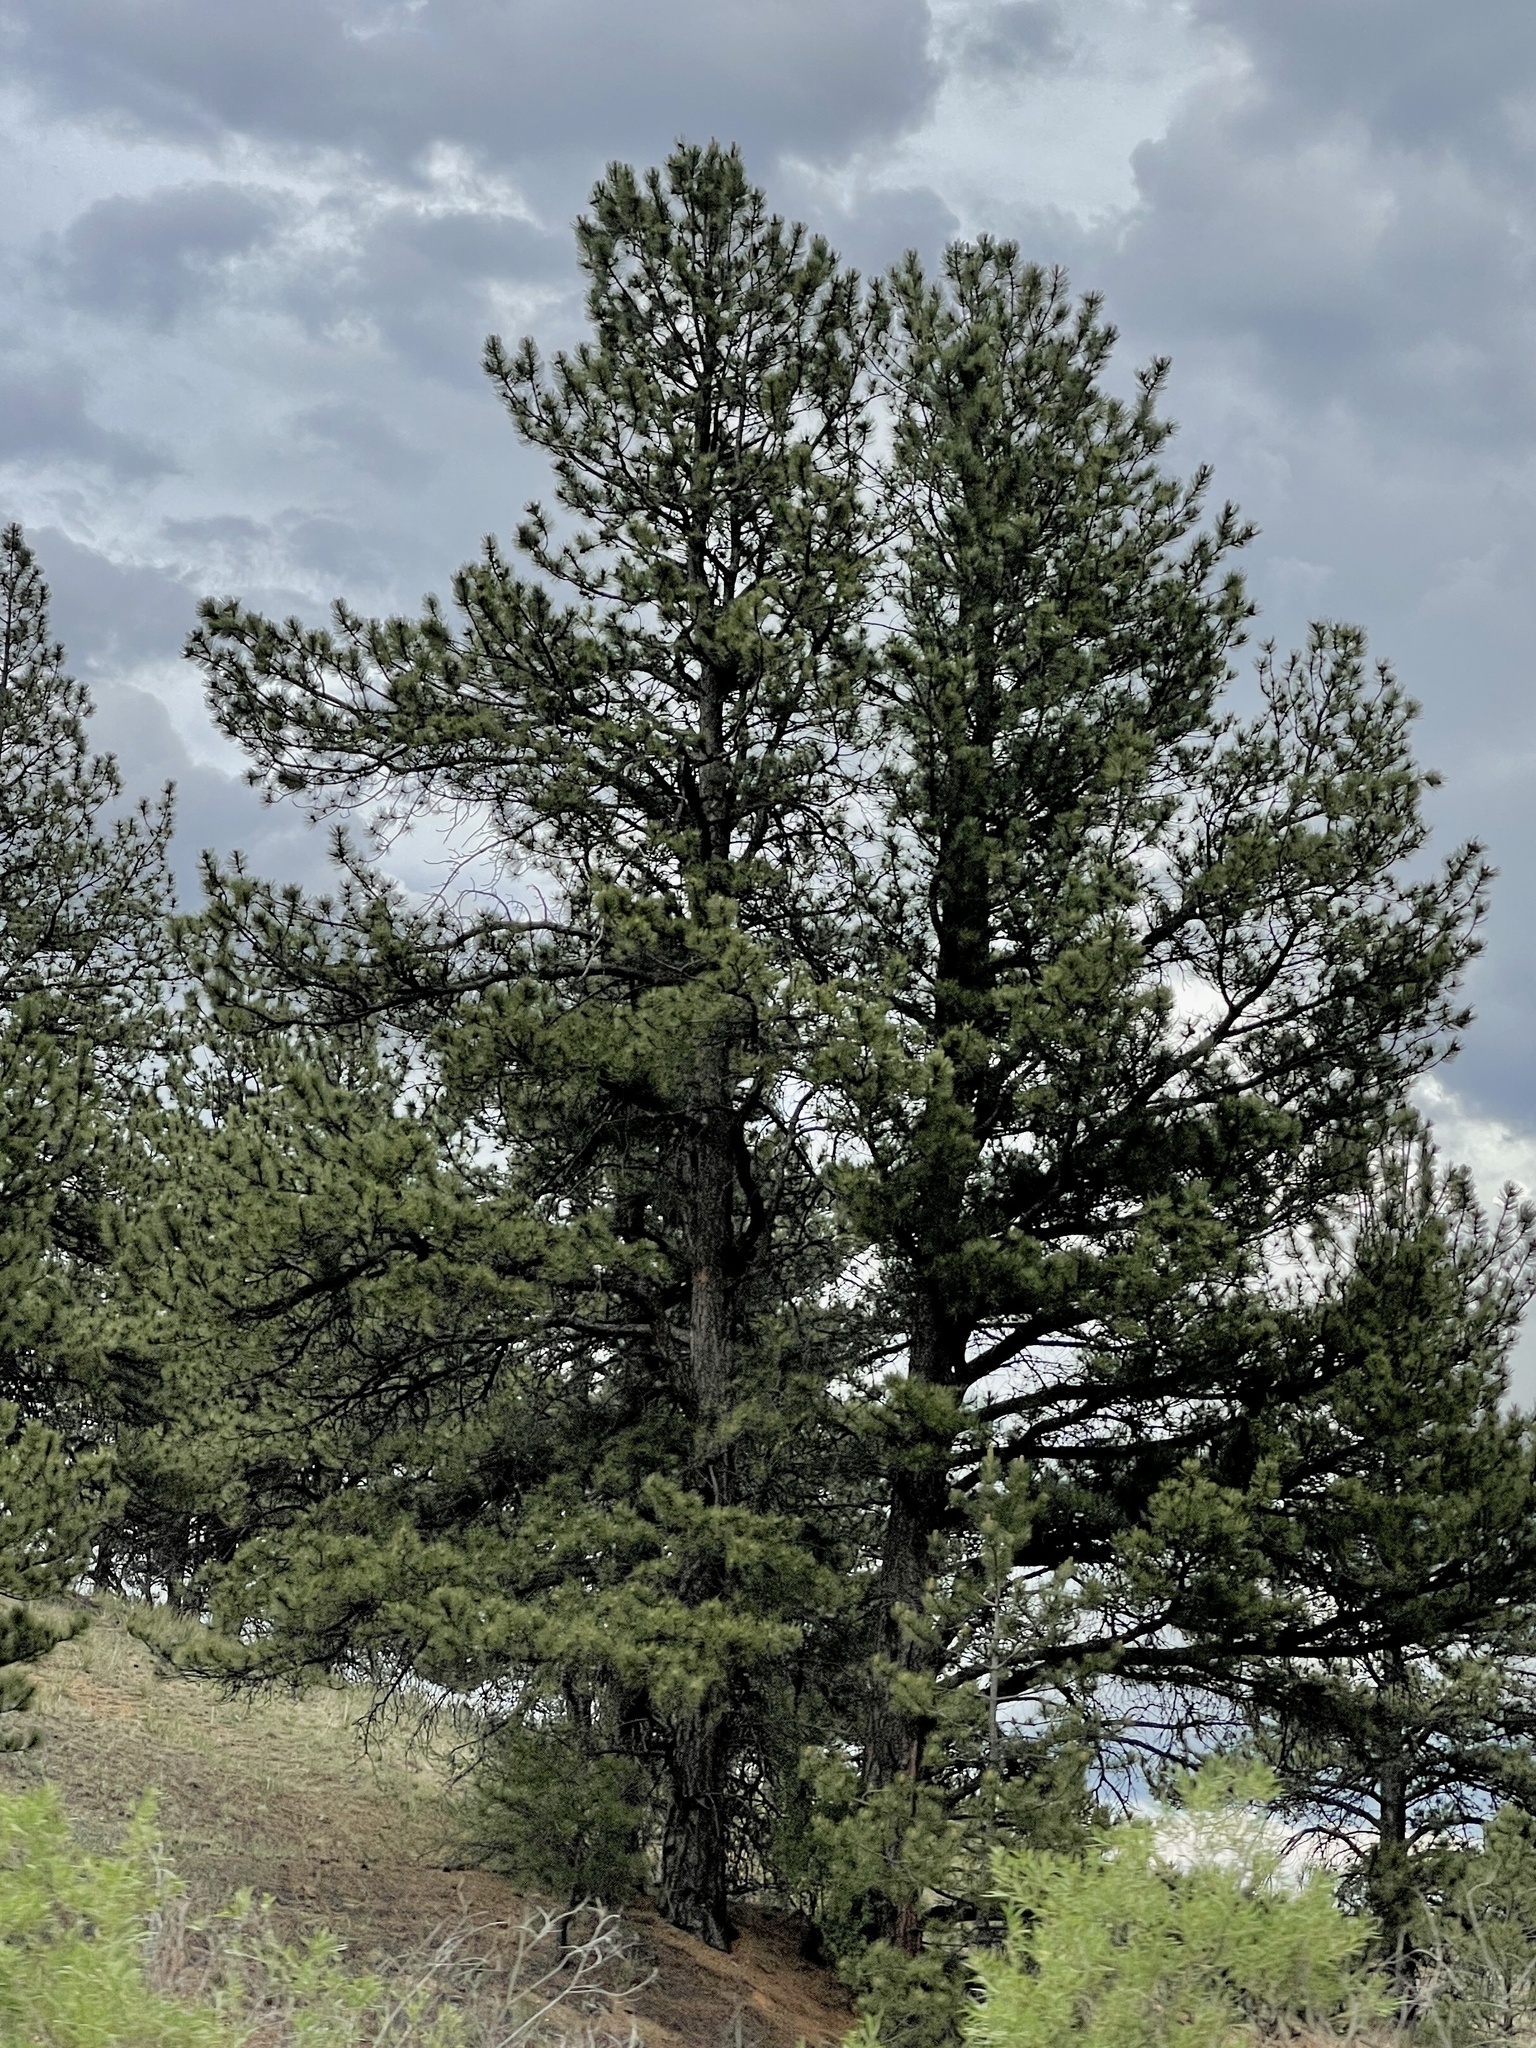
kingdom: Plantae
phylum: Tracheophyta
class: Pinopsida
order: Pinales
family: Pinaceae
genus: Pinus
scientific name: Pinus ponderosa
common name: Western yellow-pine
